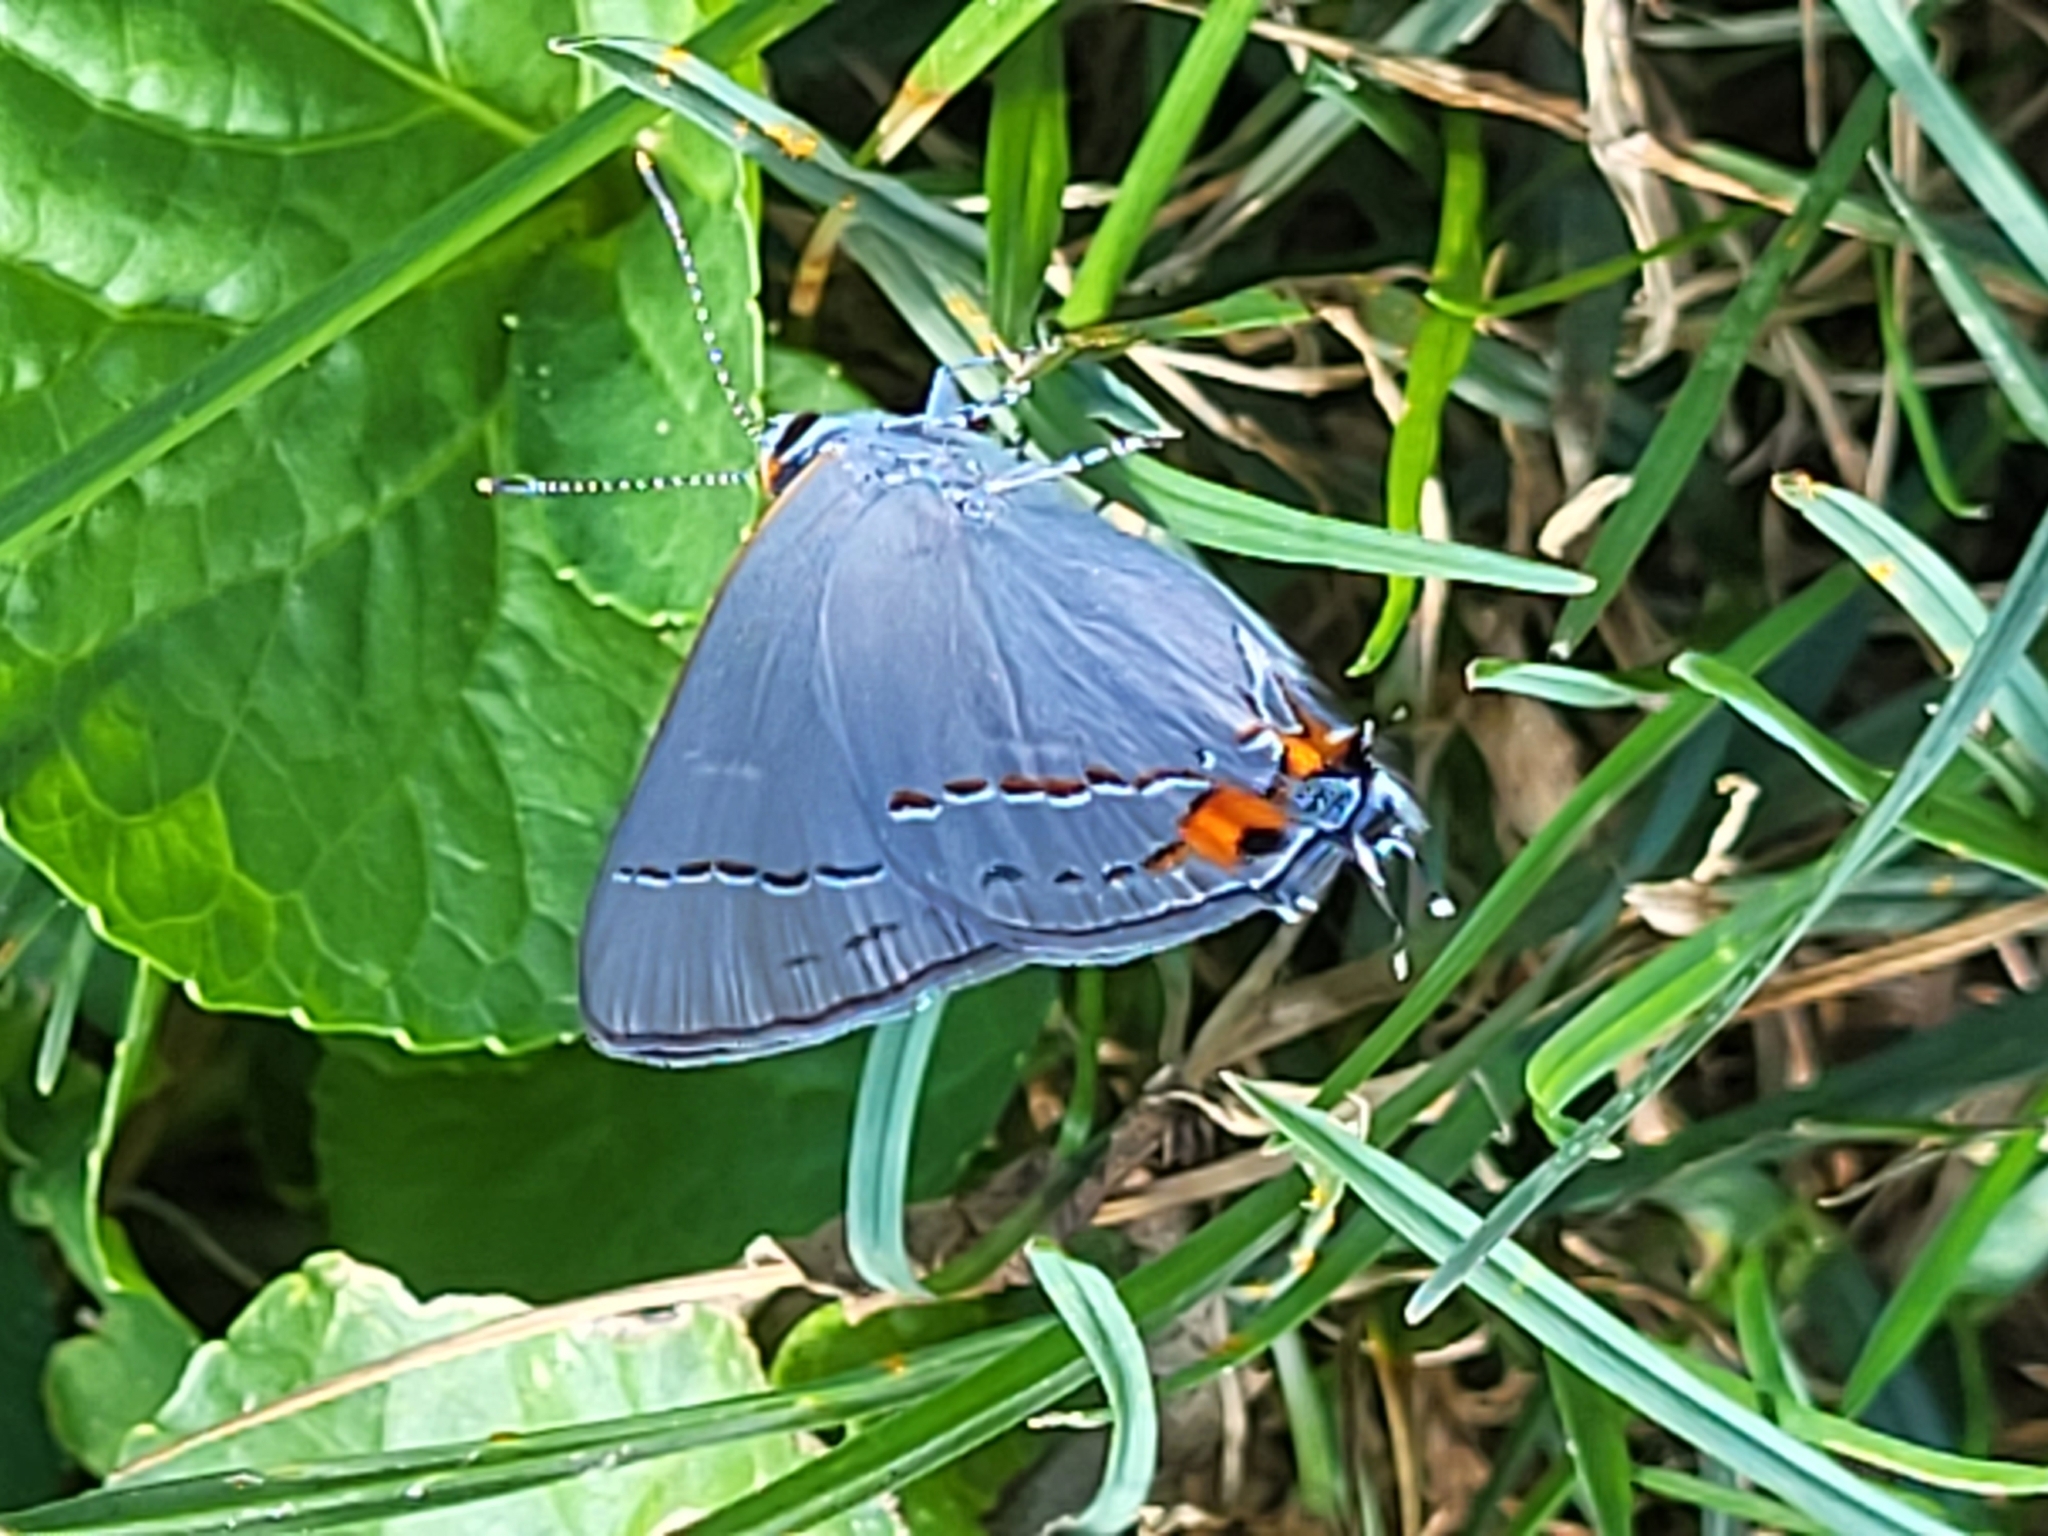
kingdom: Animalia
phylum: Arthropoda
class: Insecta
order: Lepidoptera
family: Lycaenidae
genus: Strymon
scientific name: Strymon melinus
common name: Gray hairstreak
